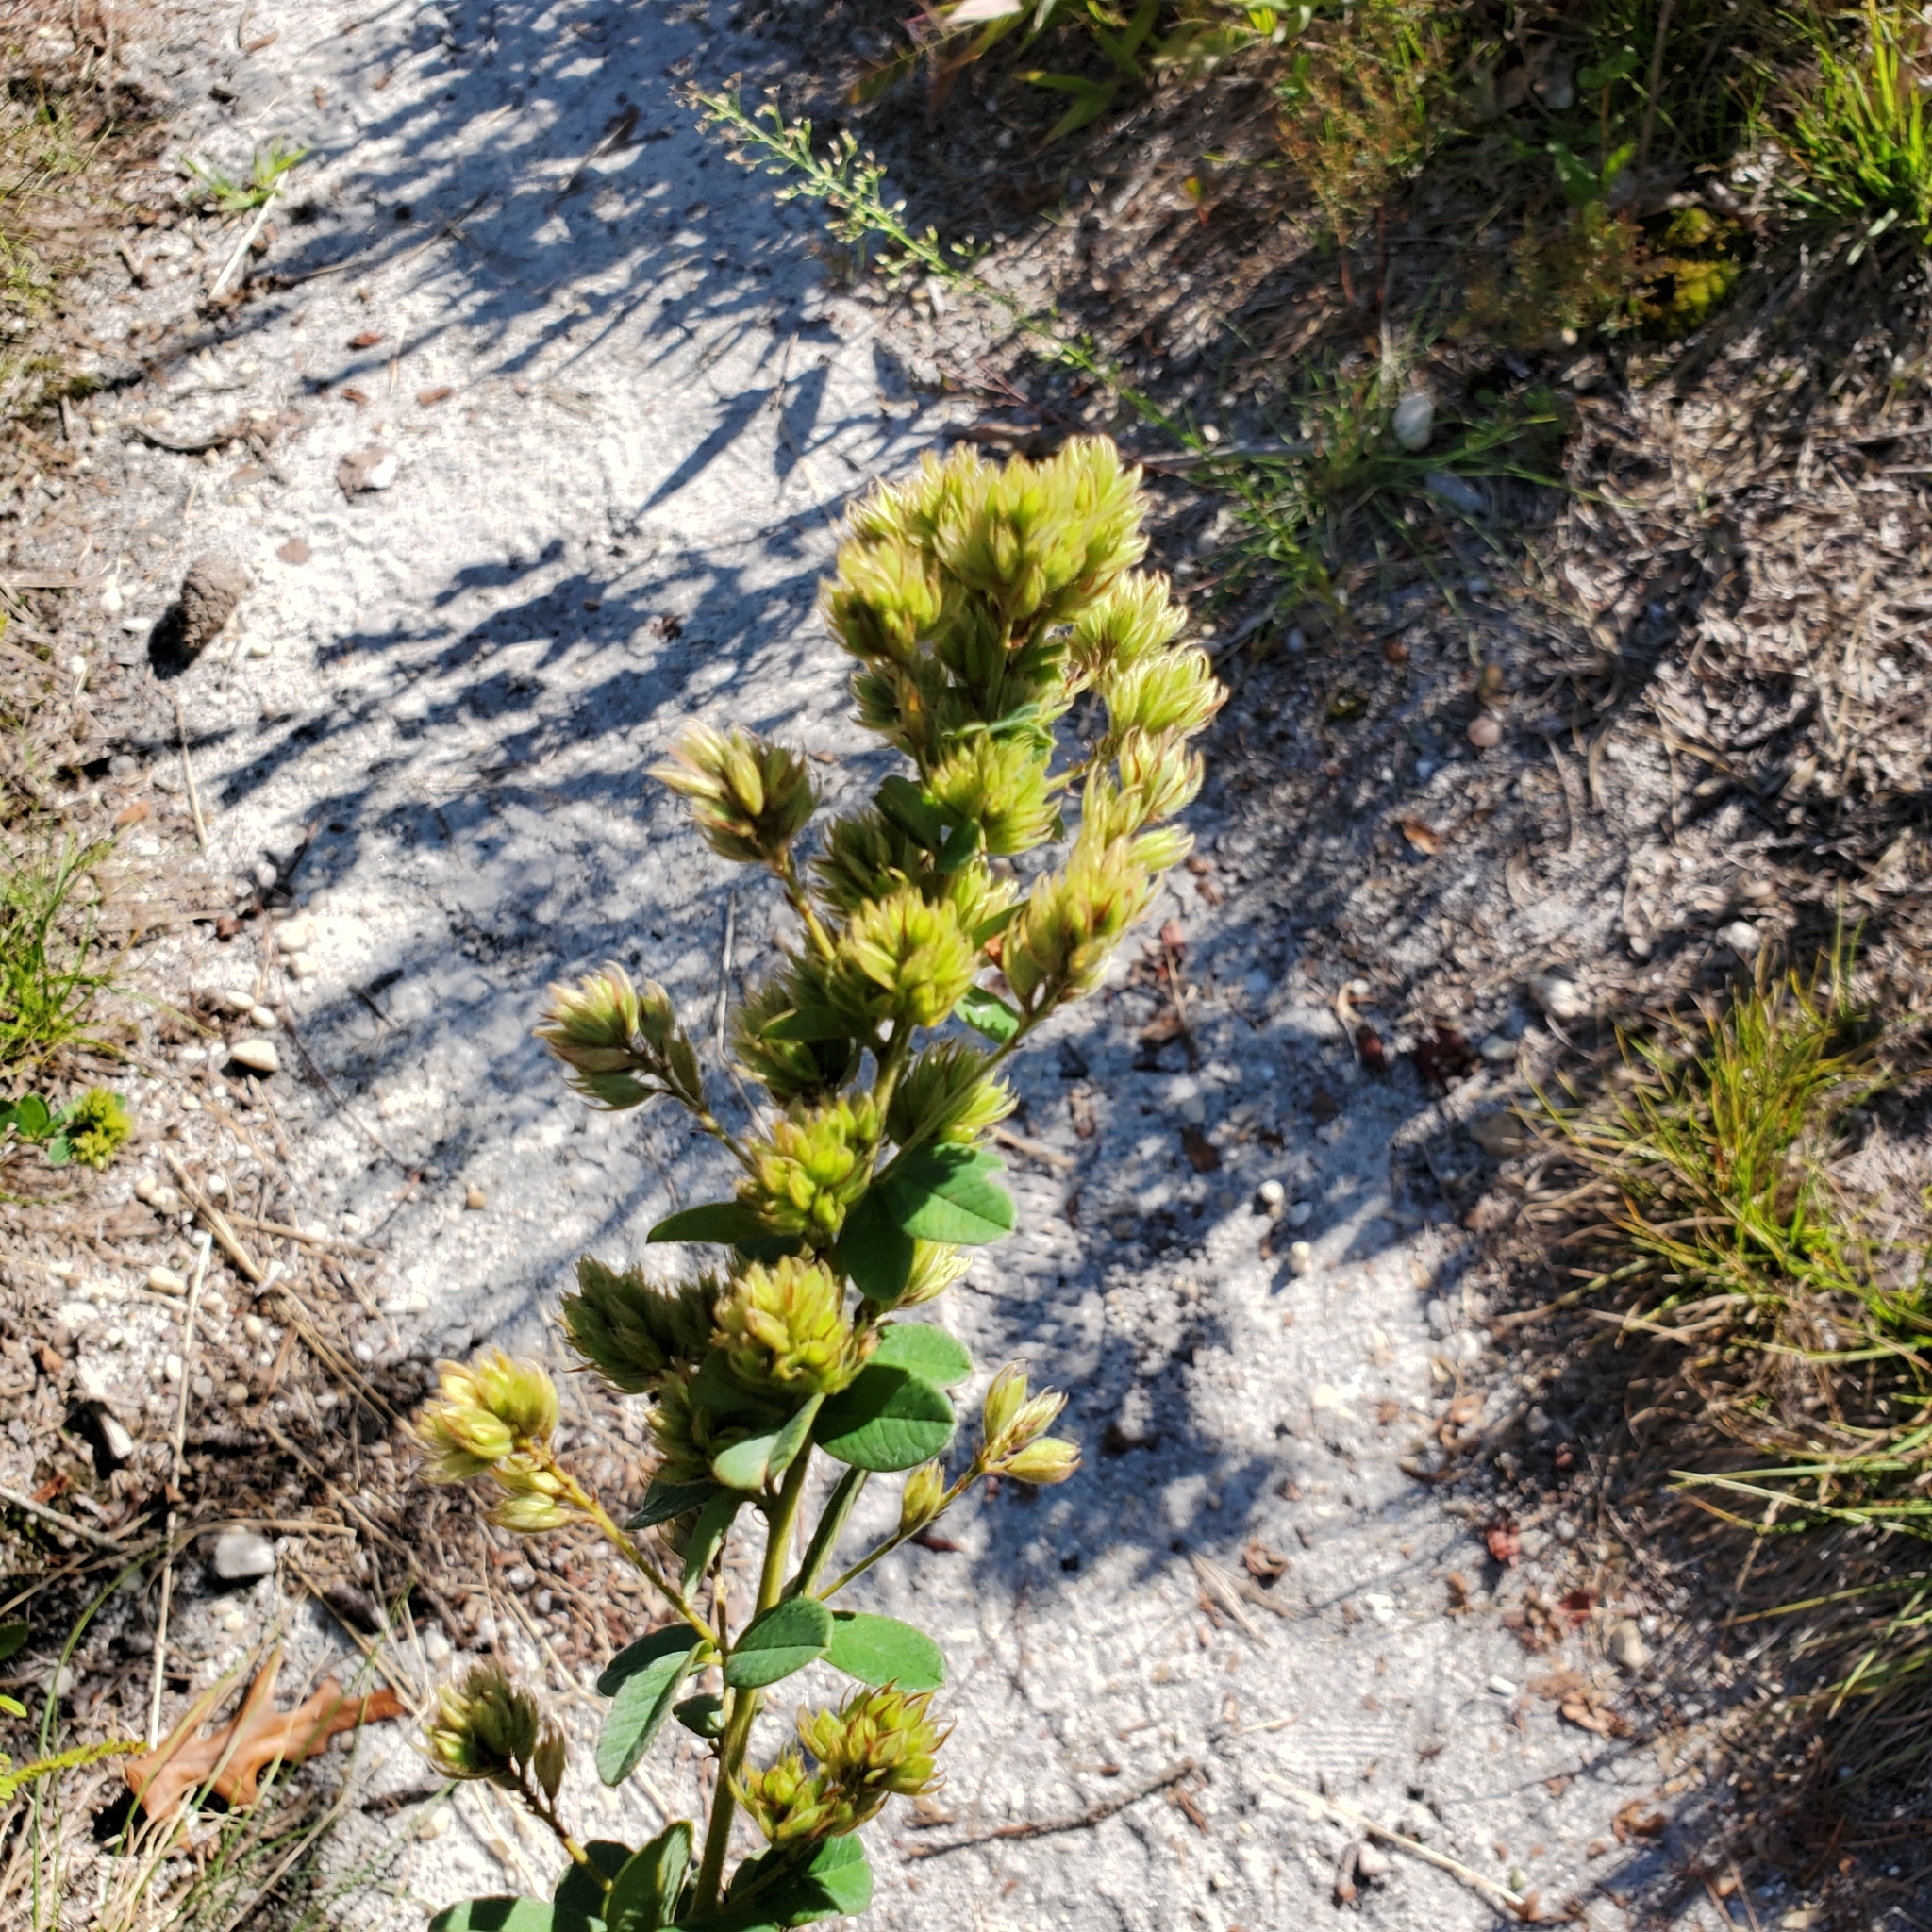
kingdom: Plantae
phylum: Tracheophyta
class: Magnoliopsida
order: Fabales
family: Fabaceae
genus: Lespedeza
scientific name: Lespedeza hirta
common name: Hairy lespedeza
